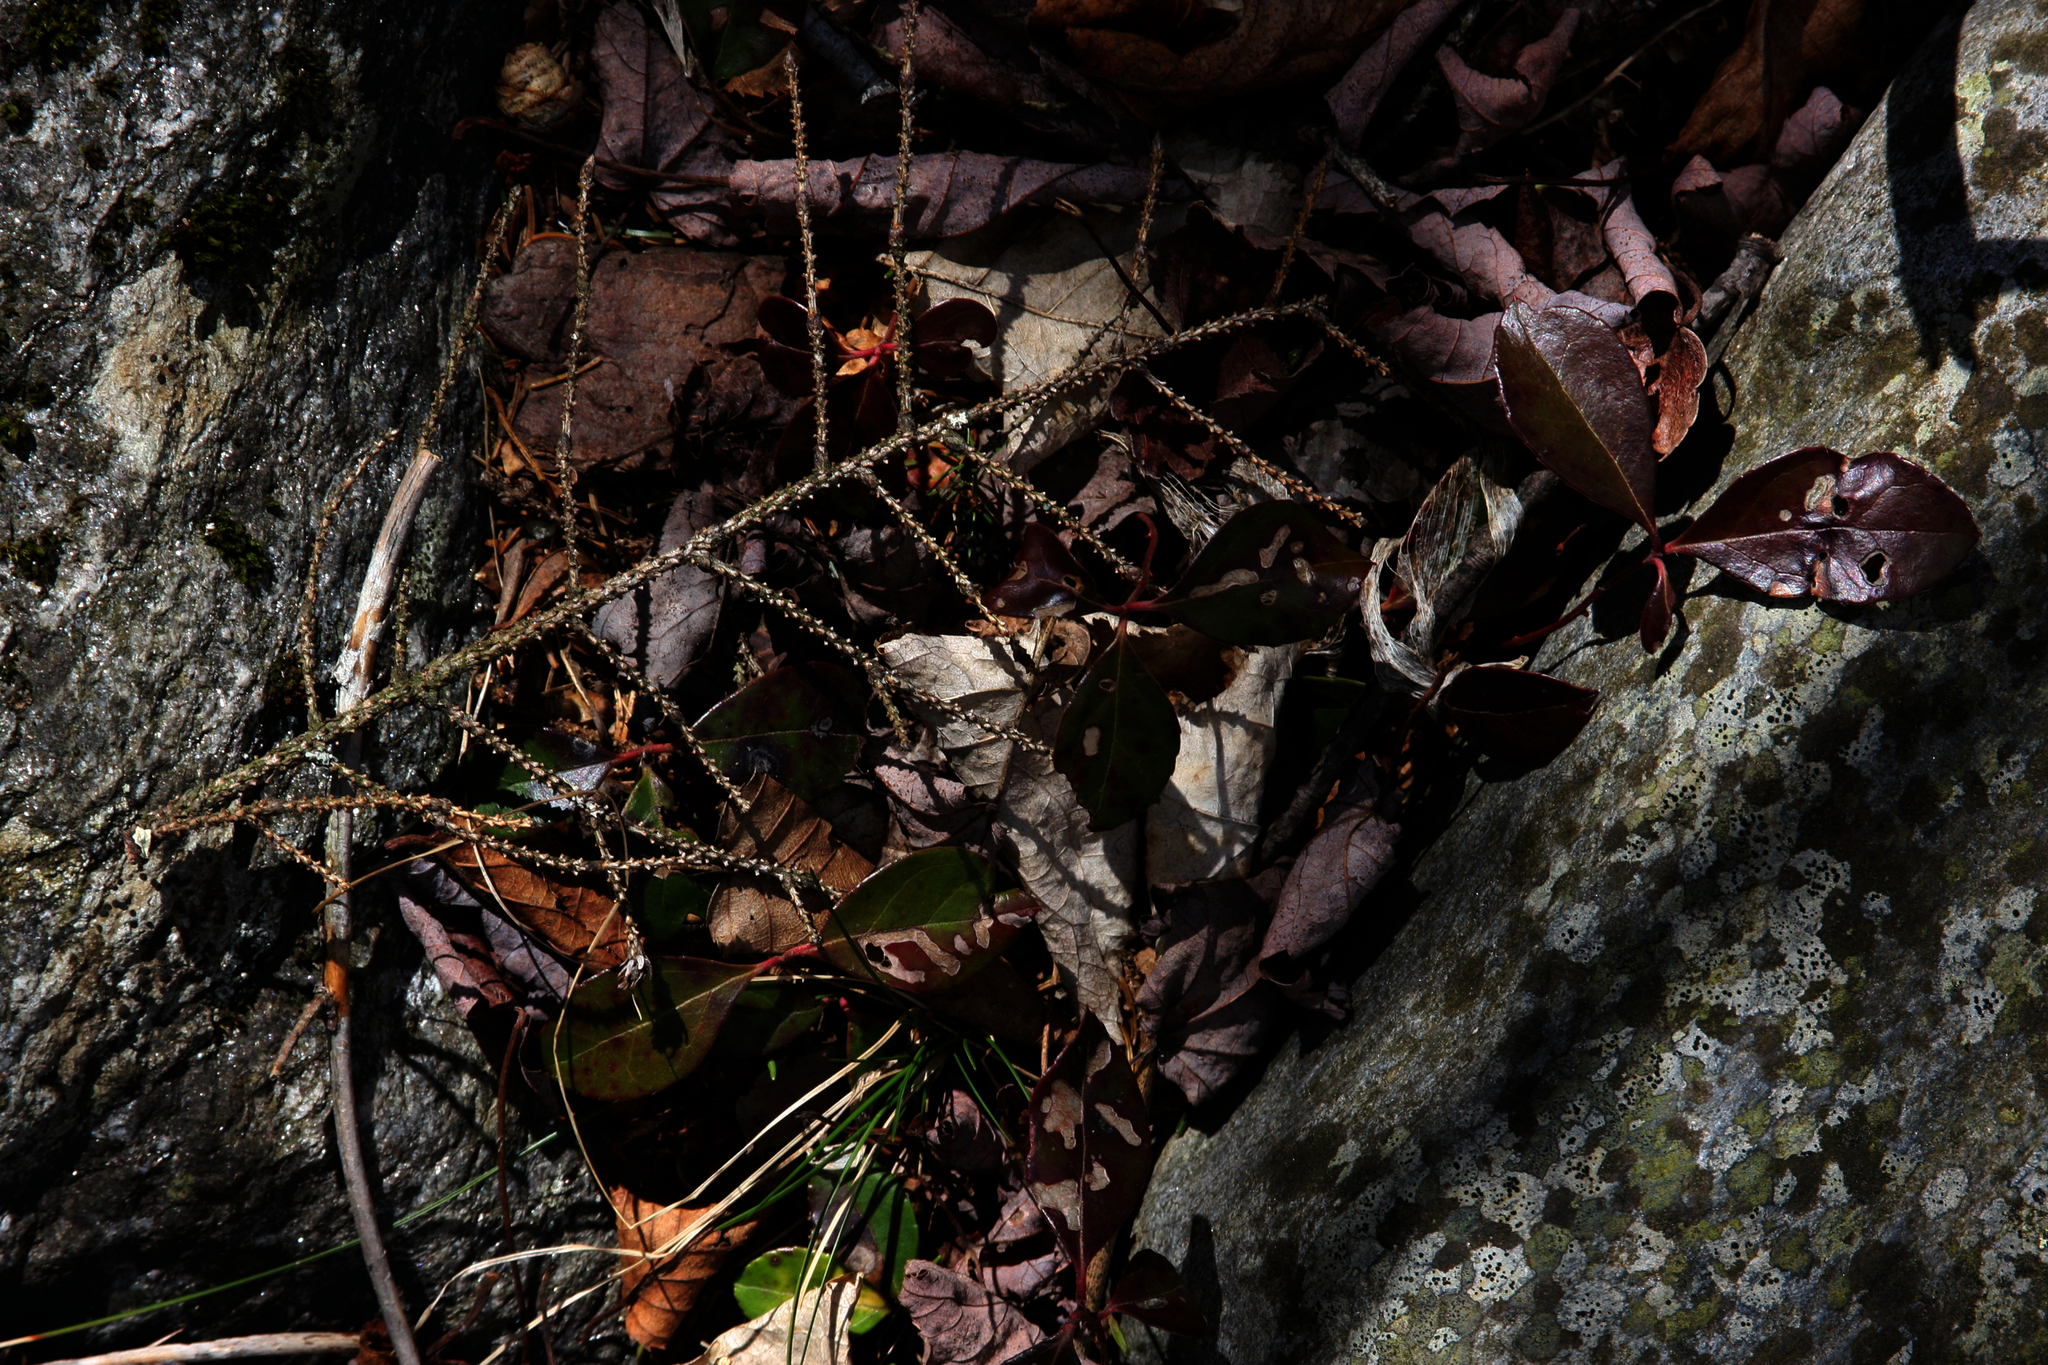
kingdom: Plantae
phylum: Tracheophyta
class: Magnoliopsida
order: Ericales
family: Ericaceae
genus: Gaultheria
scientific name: Gaultheria procumbens
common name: Checkerberry
